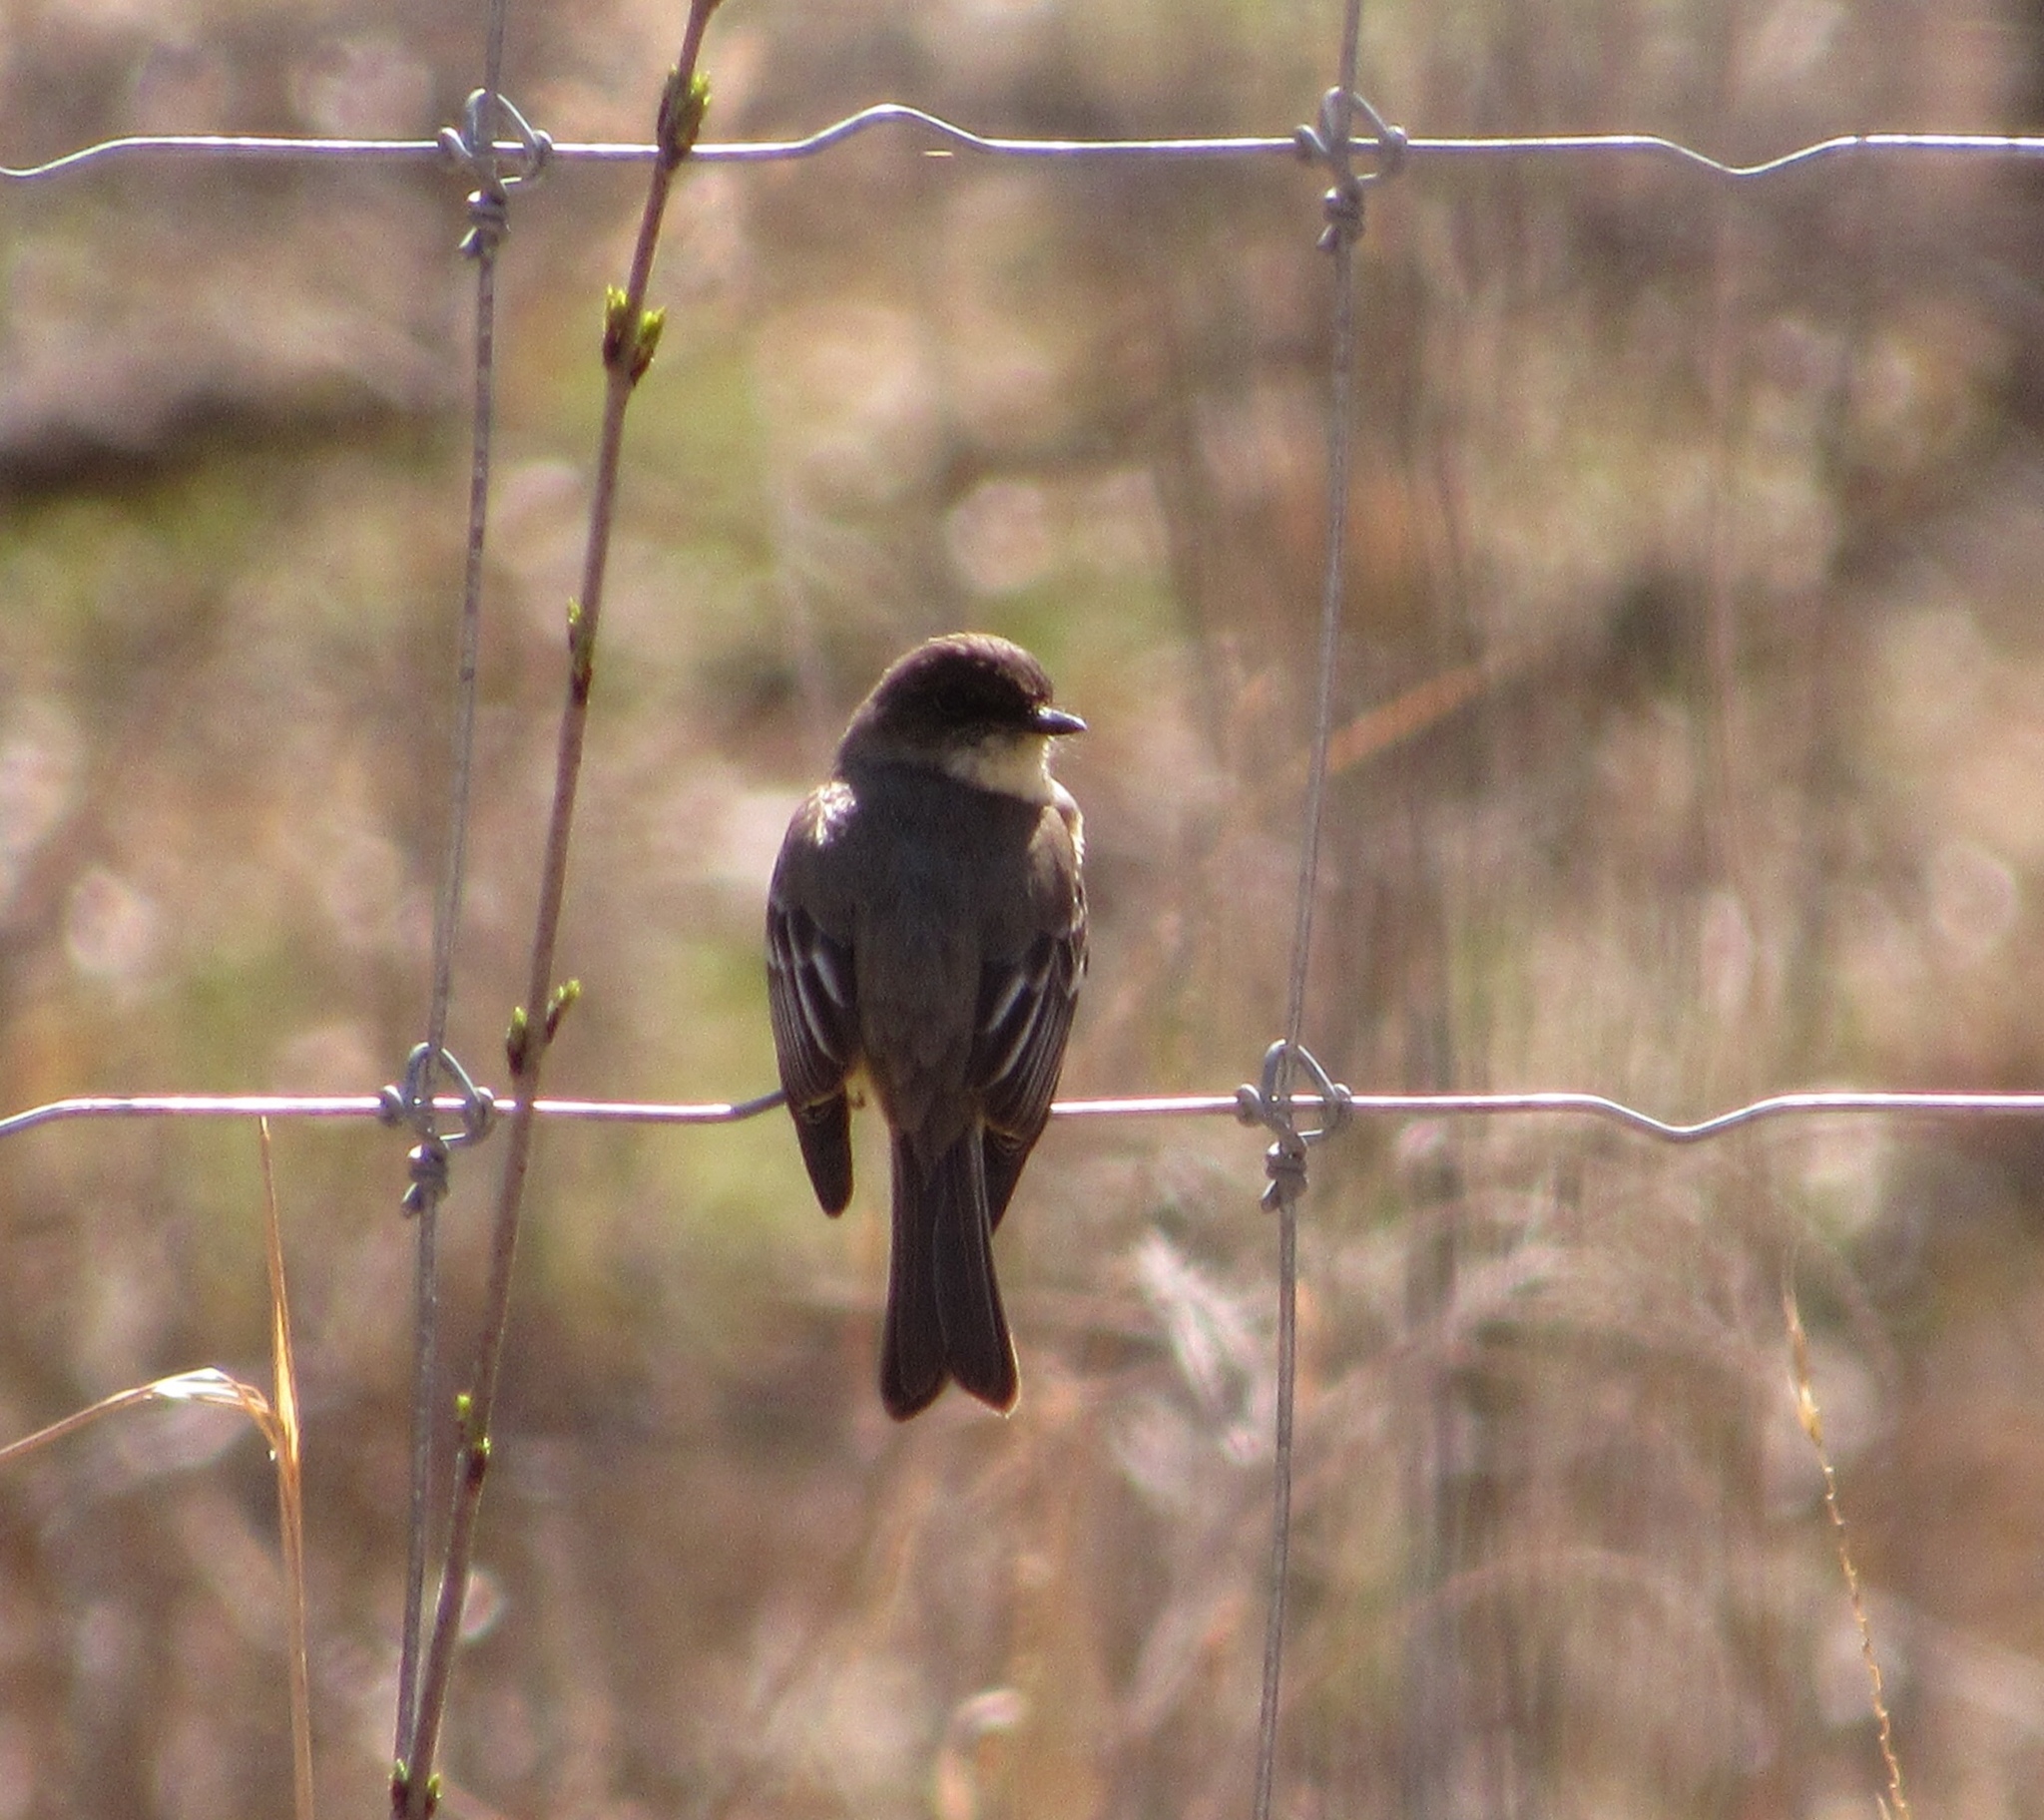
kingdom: Animalia
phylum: Chordata
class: Aves
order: Passeriformes
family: Tyrannidae
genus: Sayornis
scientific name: Sayornis phoebe
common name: Eastern phoebe
